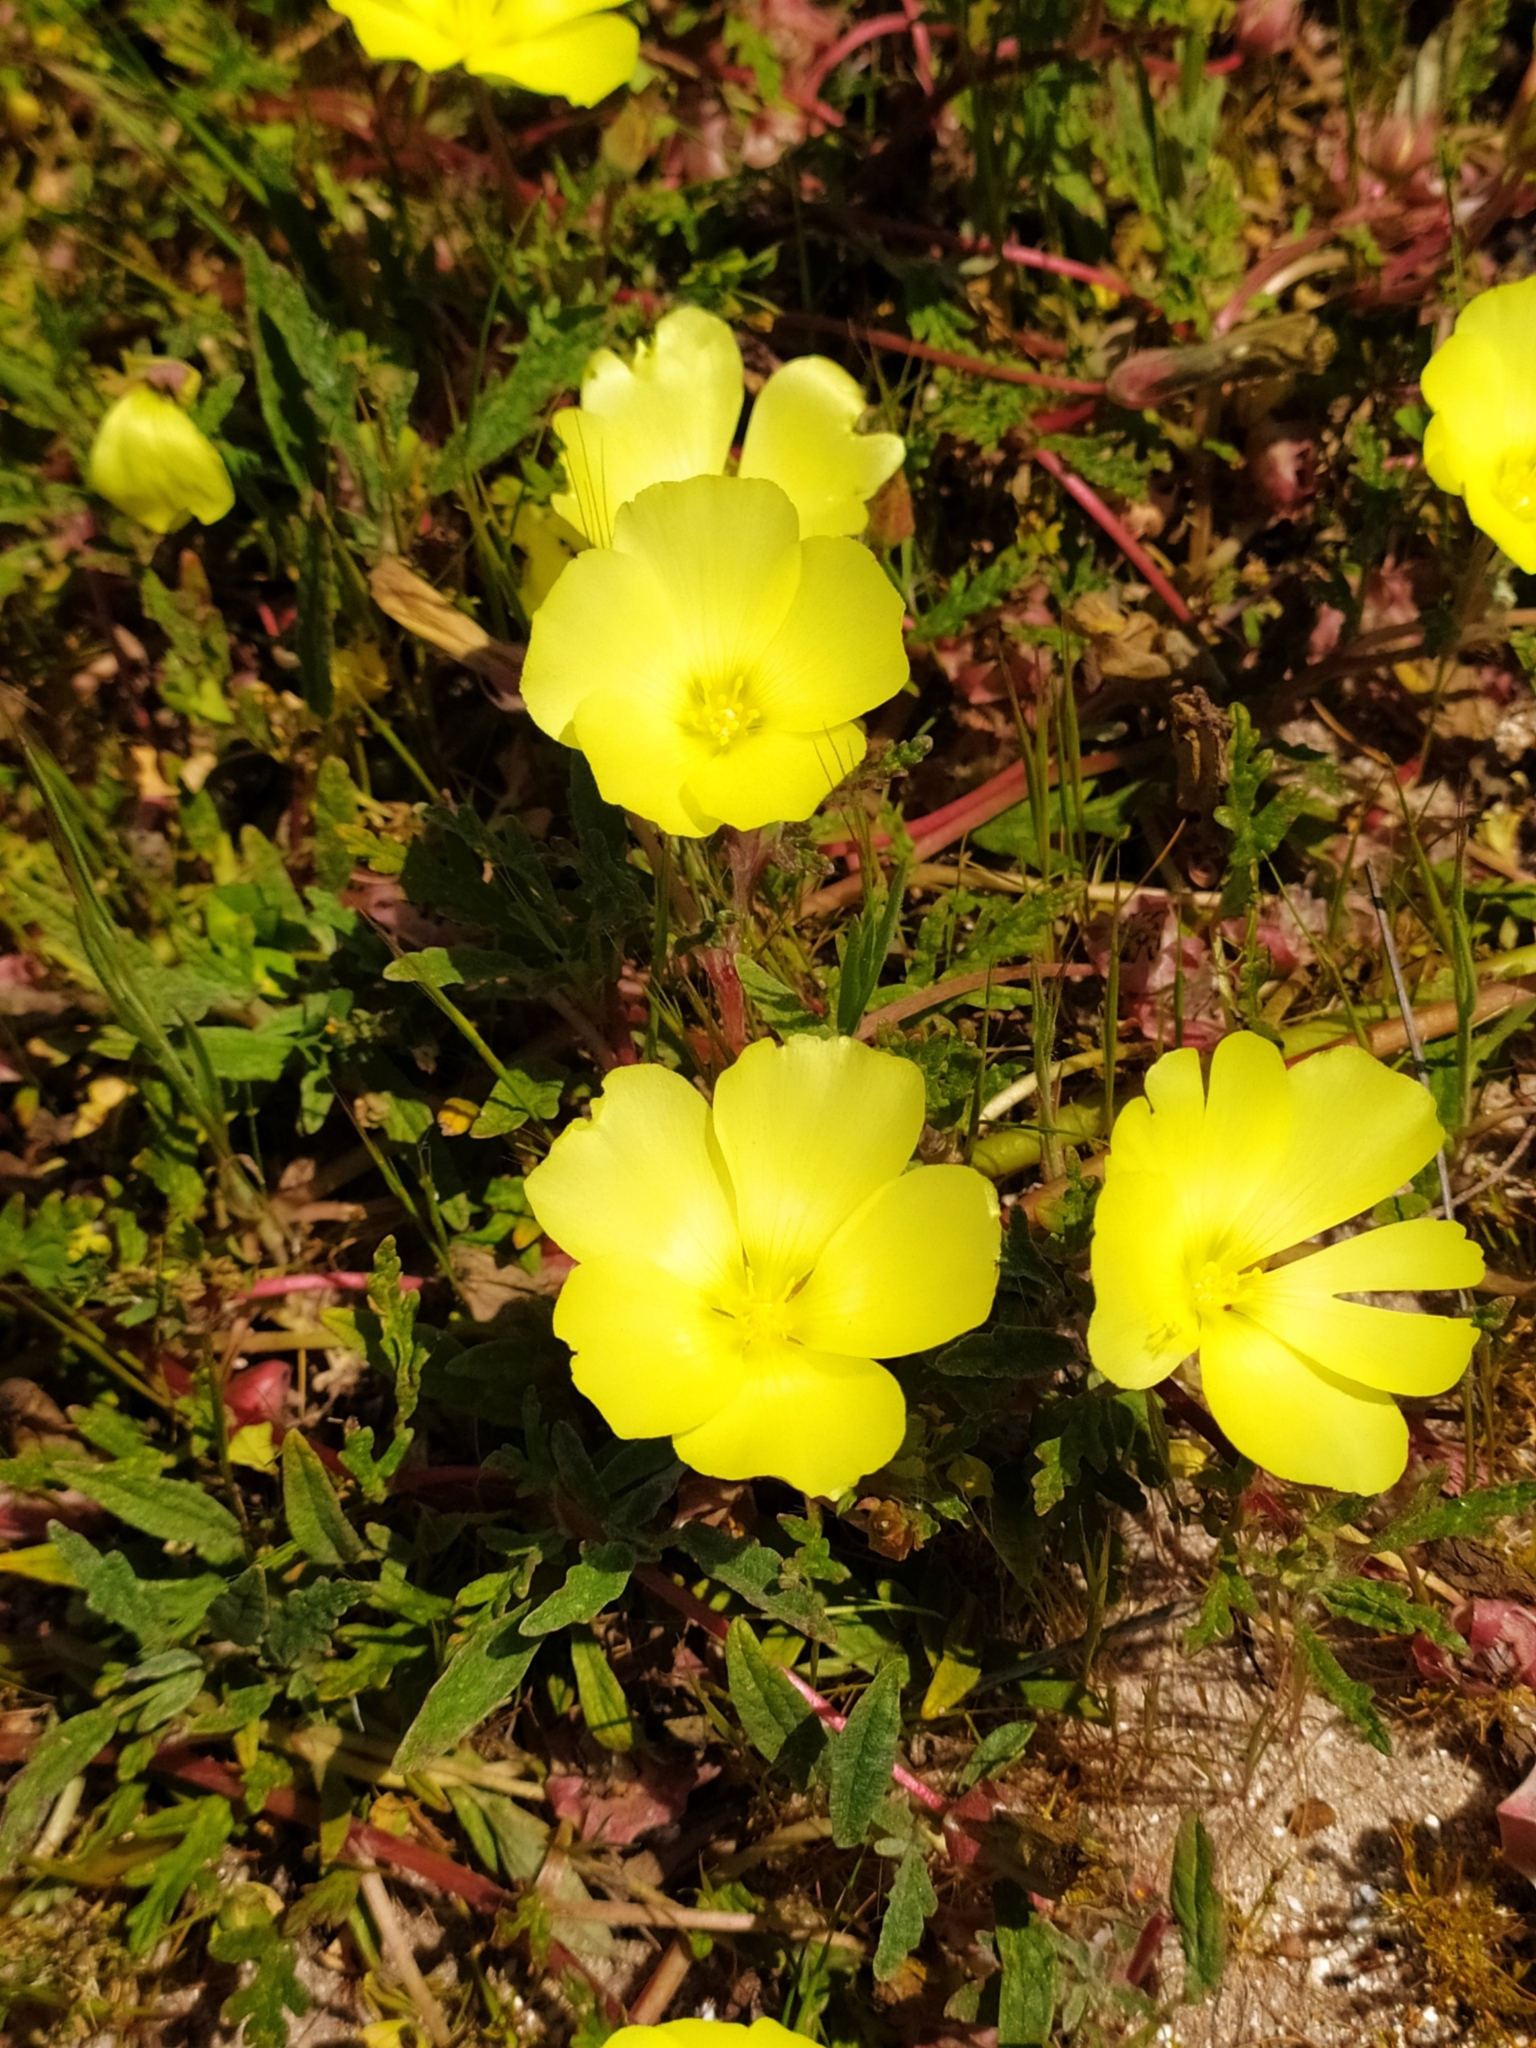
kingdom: Plantae
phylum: Tracheophyta
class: Magnoliopsida
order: Malvales
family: Neuradaceae
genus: Grielum
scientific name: Grielum humifusum
